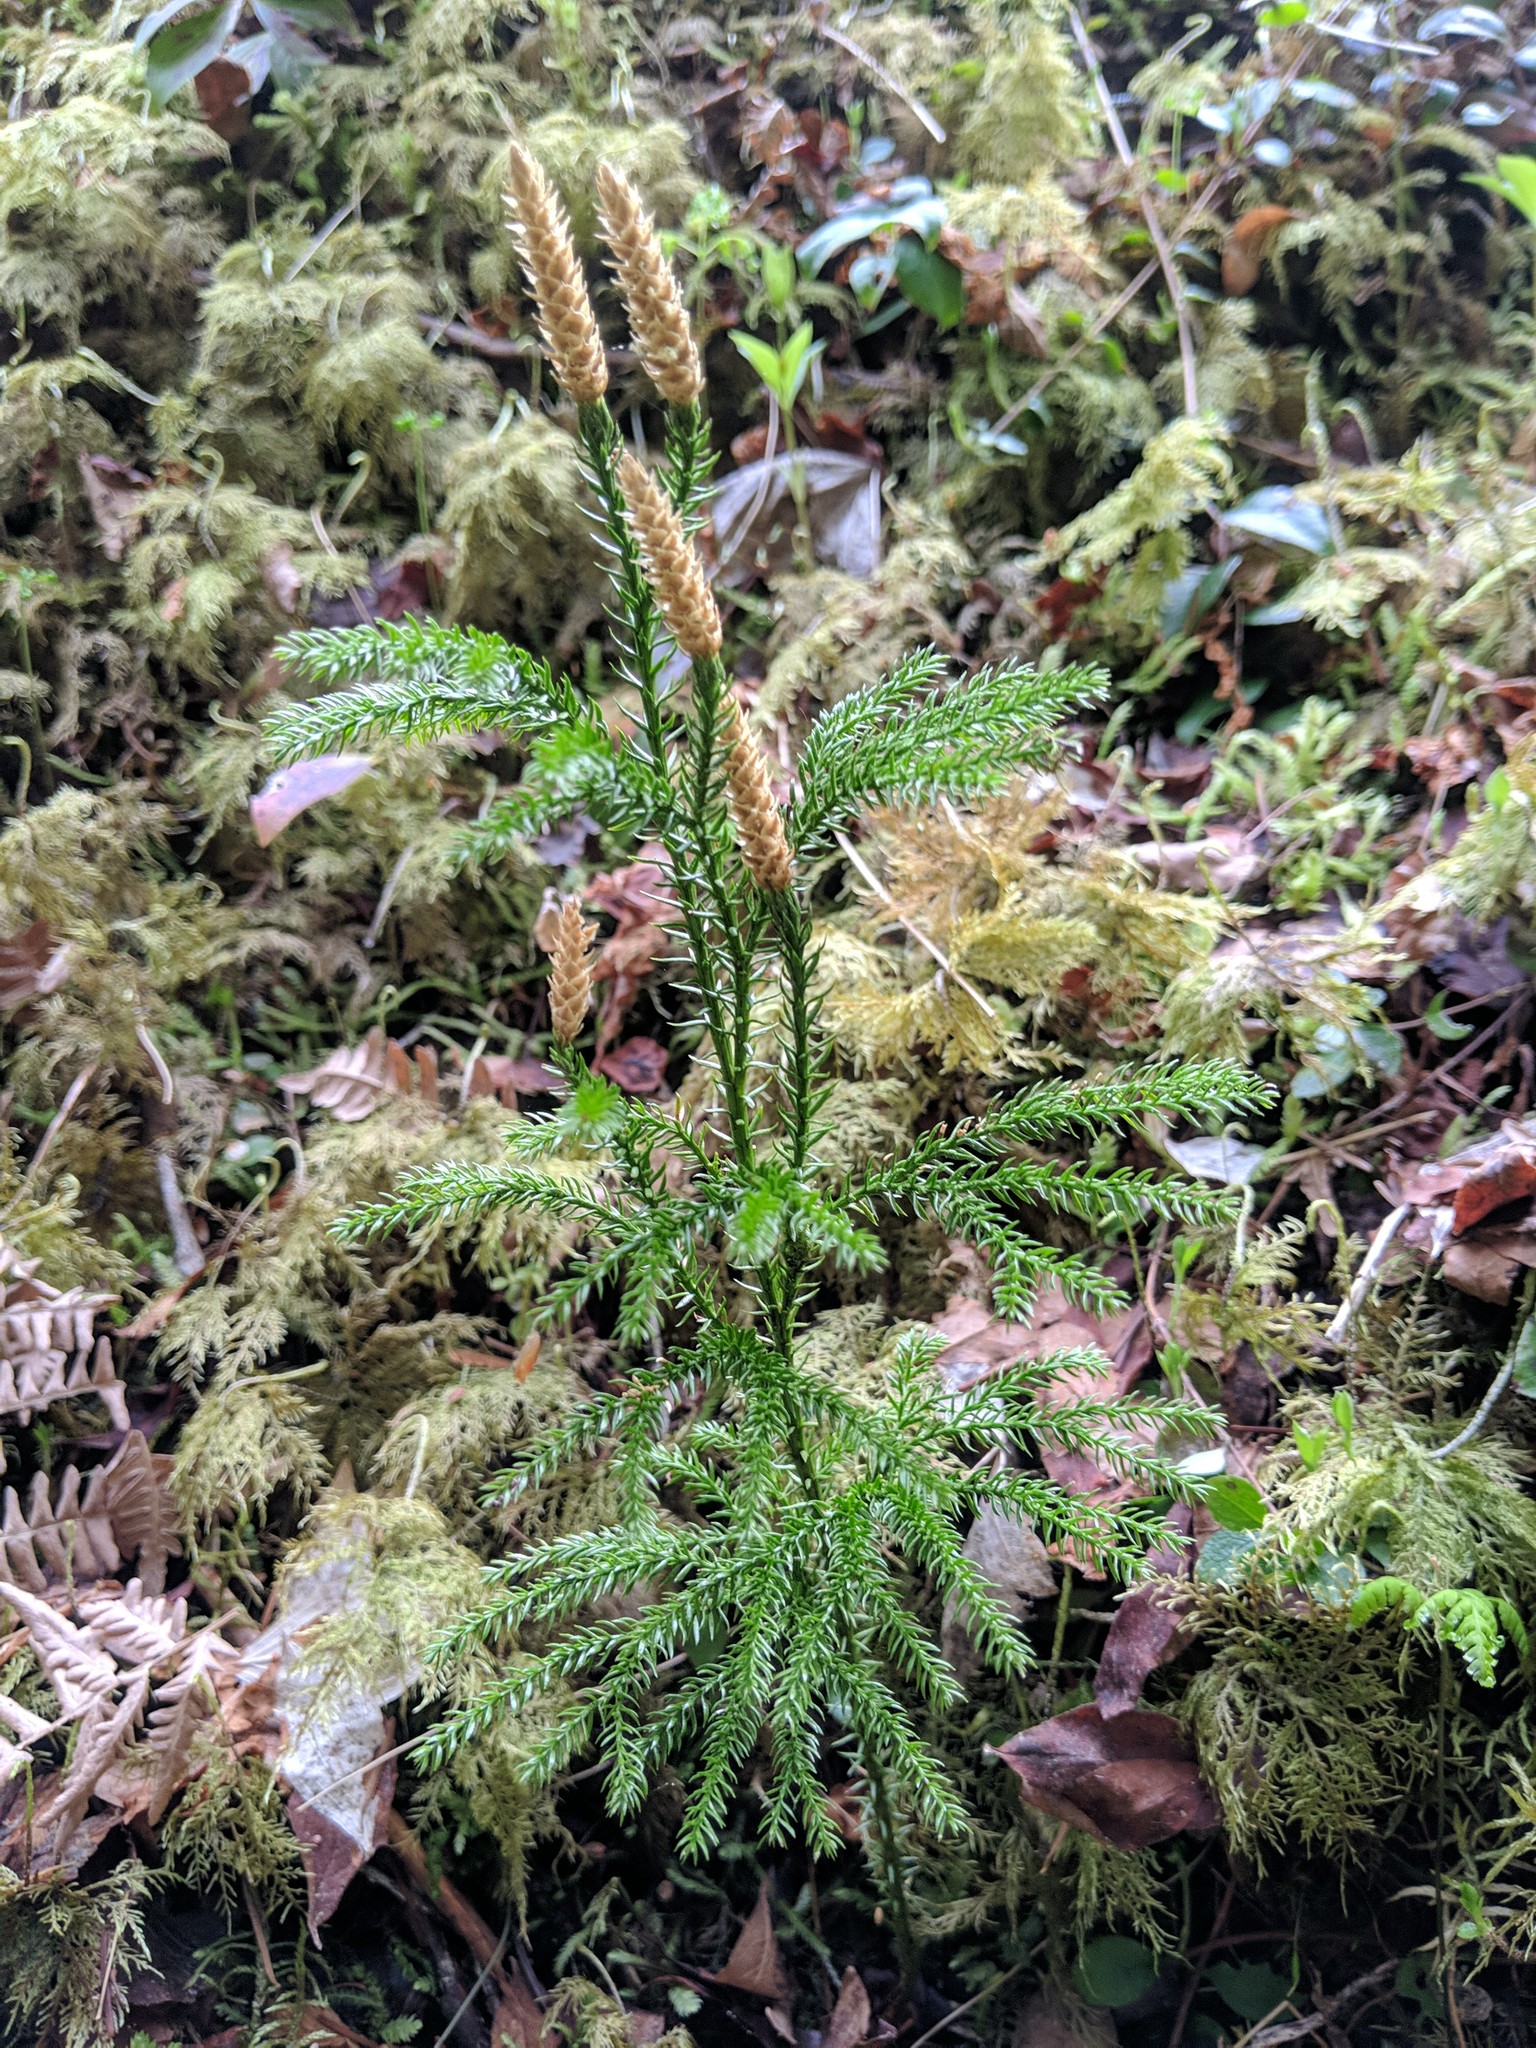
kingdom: Plantae
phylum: Tracheophyta
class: Lycopodiopsida
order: Lycopodiales
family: Lycopodiaceae
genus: Dendrolycopodium
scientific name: Dendrolycopodium dendroideum
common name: Northern tree-clubmoss
